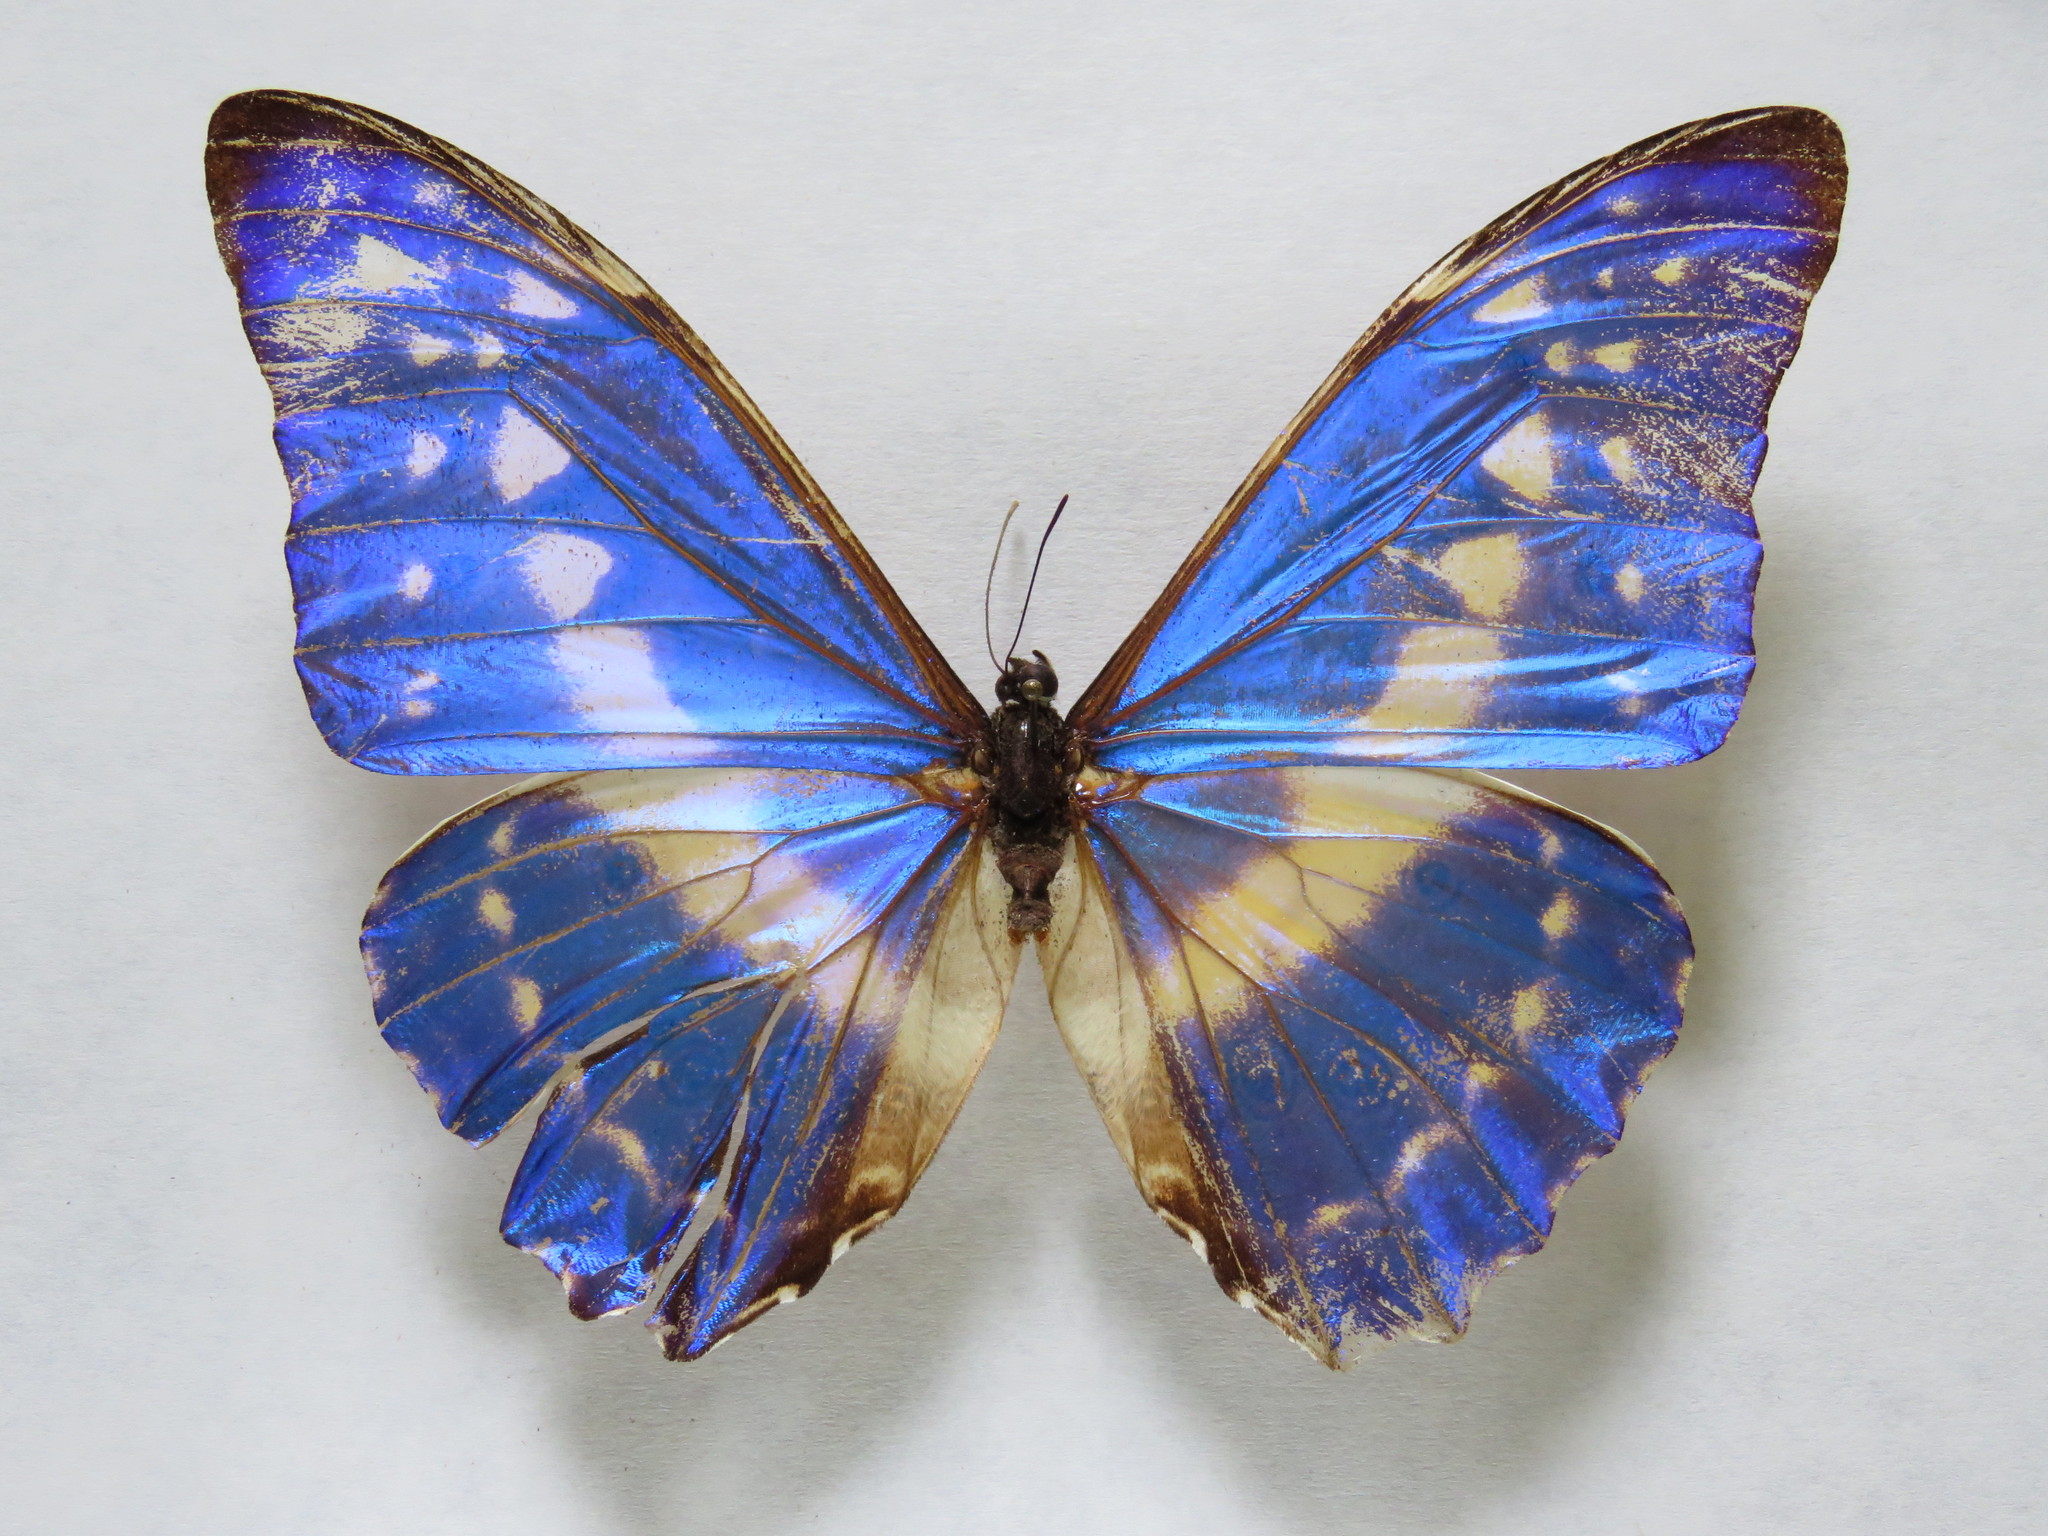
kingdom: Animalia
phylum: Arthropoda
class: Insecta
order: Lepidoptera
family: Nymphalidae
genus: Morpho
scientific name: Morpho cypris
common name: Cypris morpho
